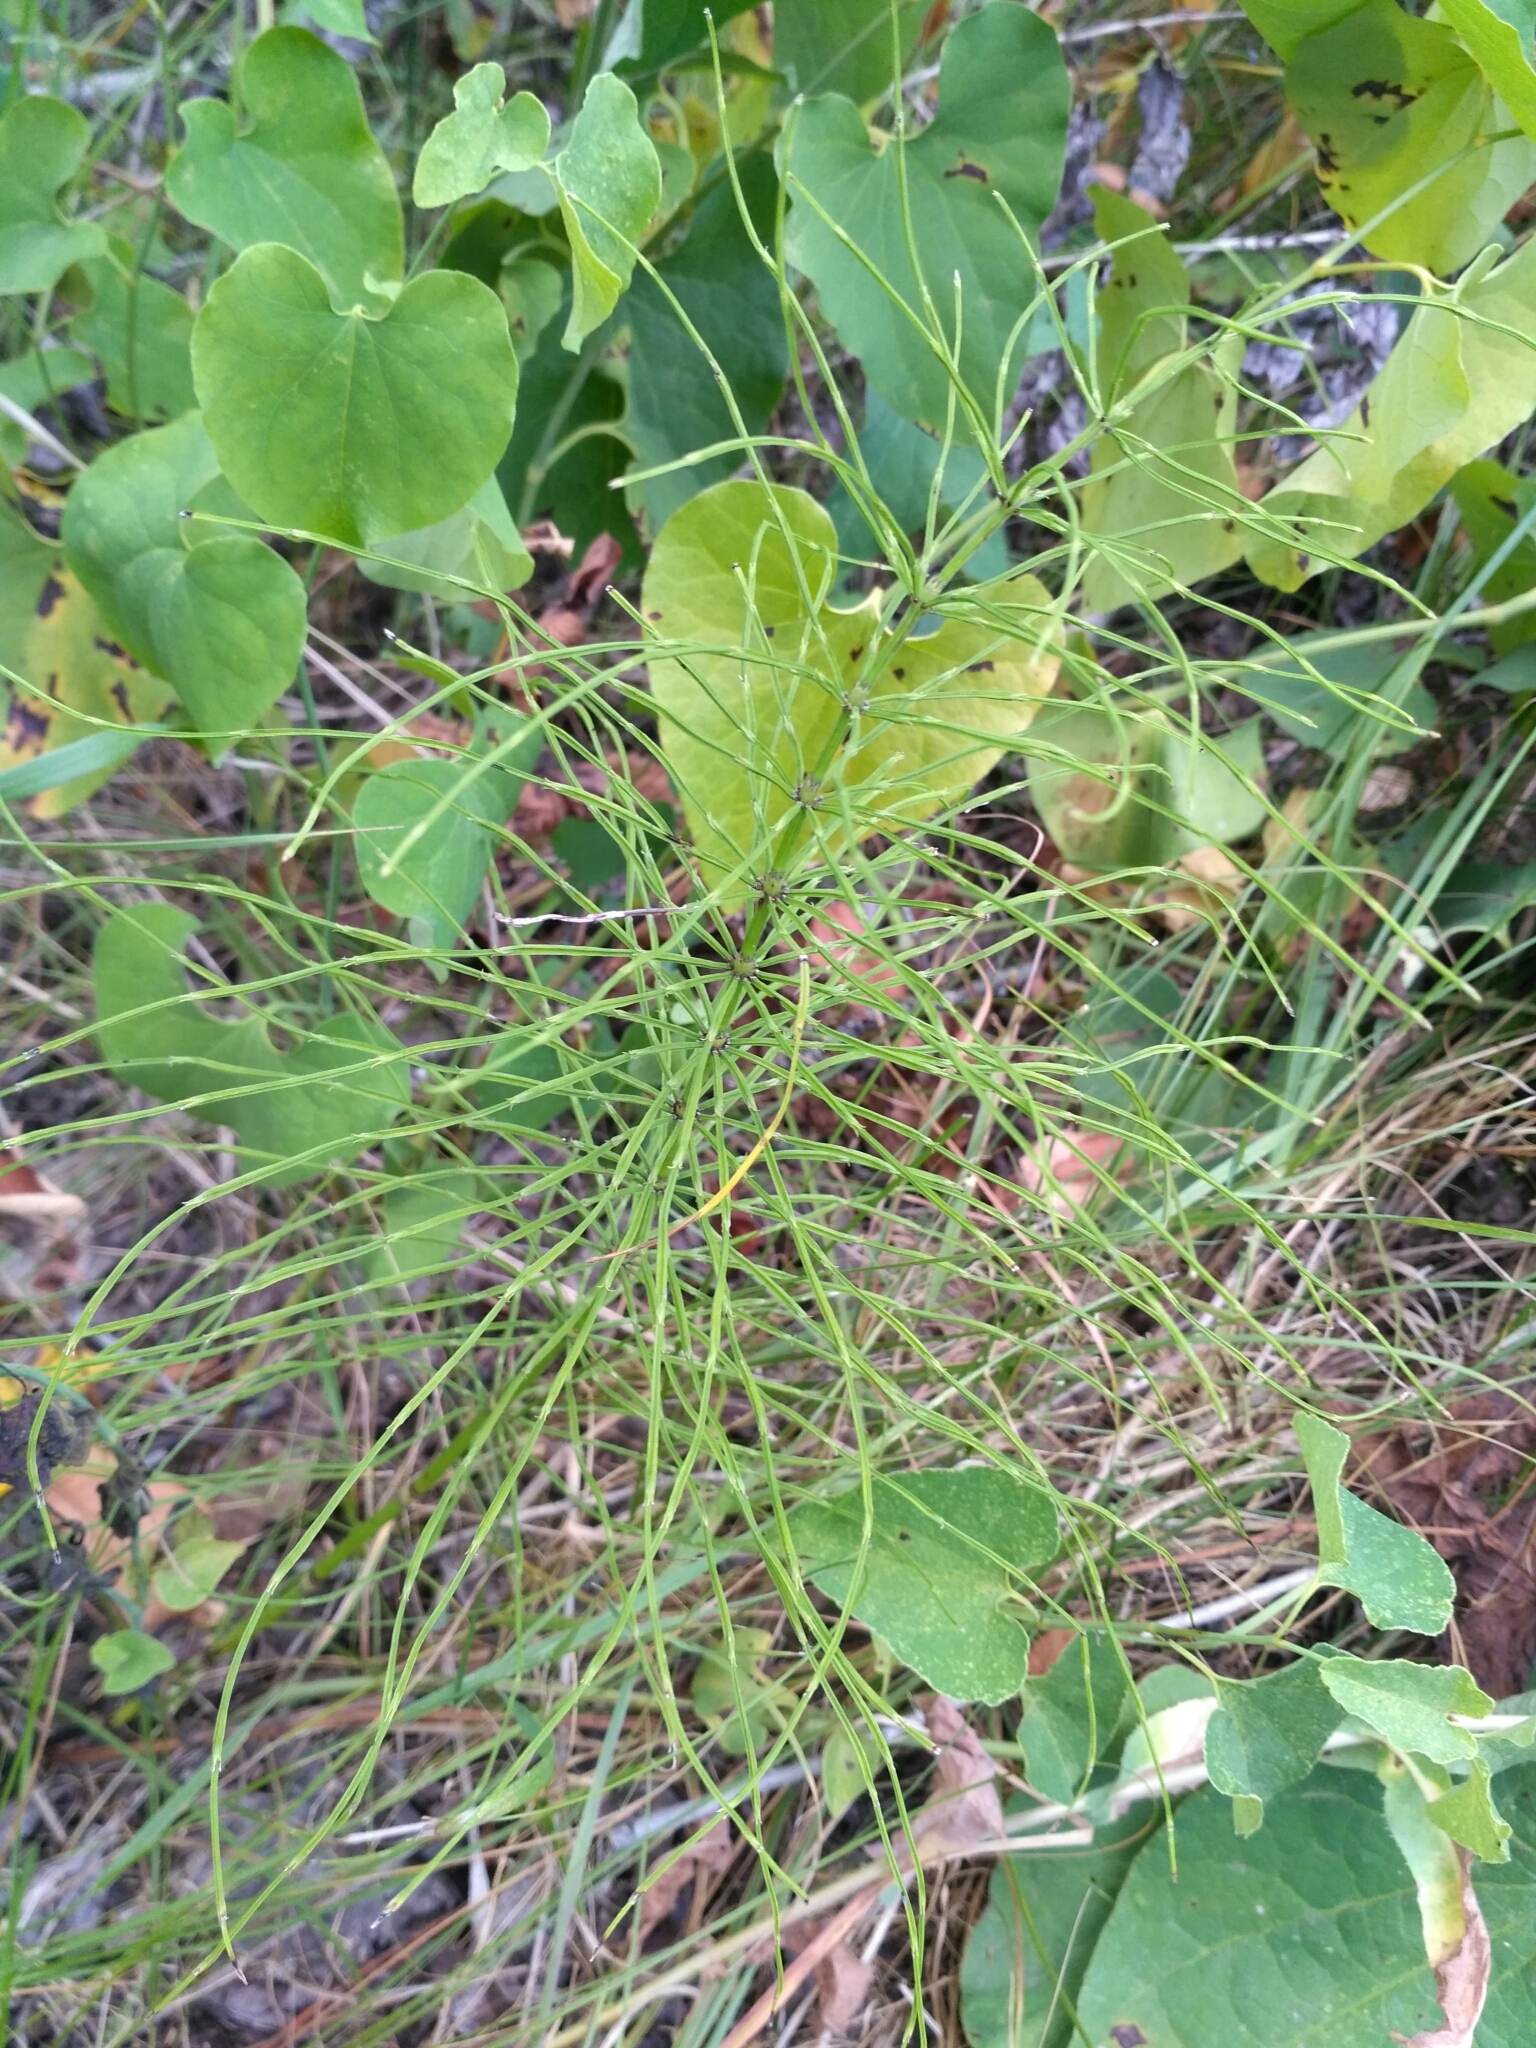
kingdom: Plantae
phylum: Tracheophyta
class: Polypodiopsida
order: Equisetales
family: Equisetaceae
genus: Equisetum
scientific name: Equisetum arvense
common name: Field horsetail
